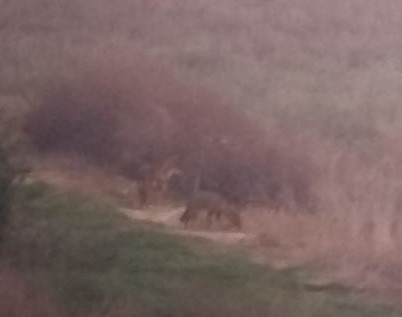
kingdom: Animalia
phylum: Chordata
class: Mammalia
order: Carnivora
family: Canidae
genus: Canis
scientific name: Canis aureus
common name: Golden jackal
